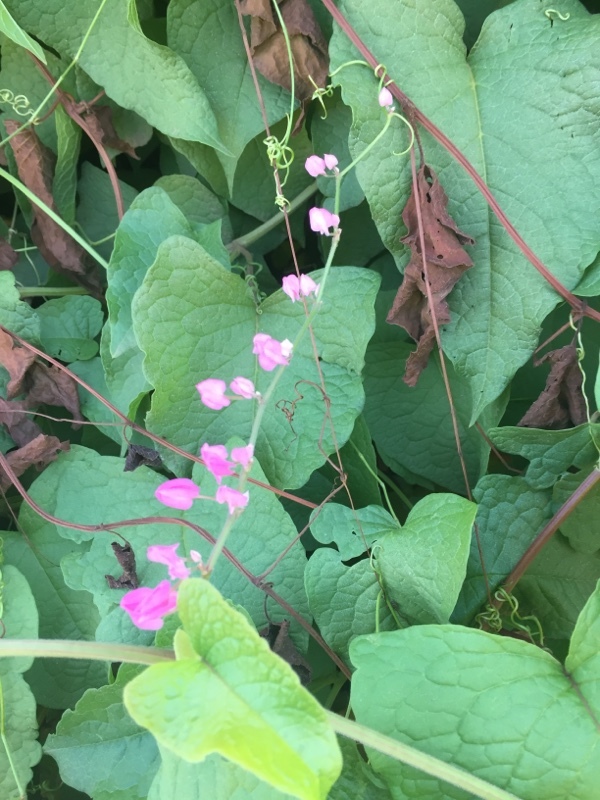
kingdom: Plantae
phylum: Tracheophyta
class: Magnoliopsida
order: Caryophyllales
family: Polygonaceae
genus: Antigonon
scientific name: Antigonon leptopus
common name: Coral vine
